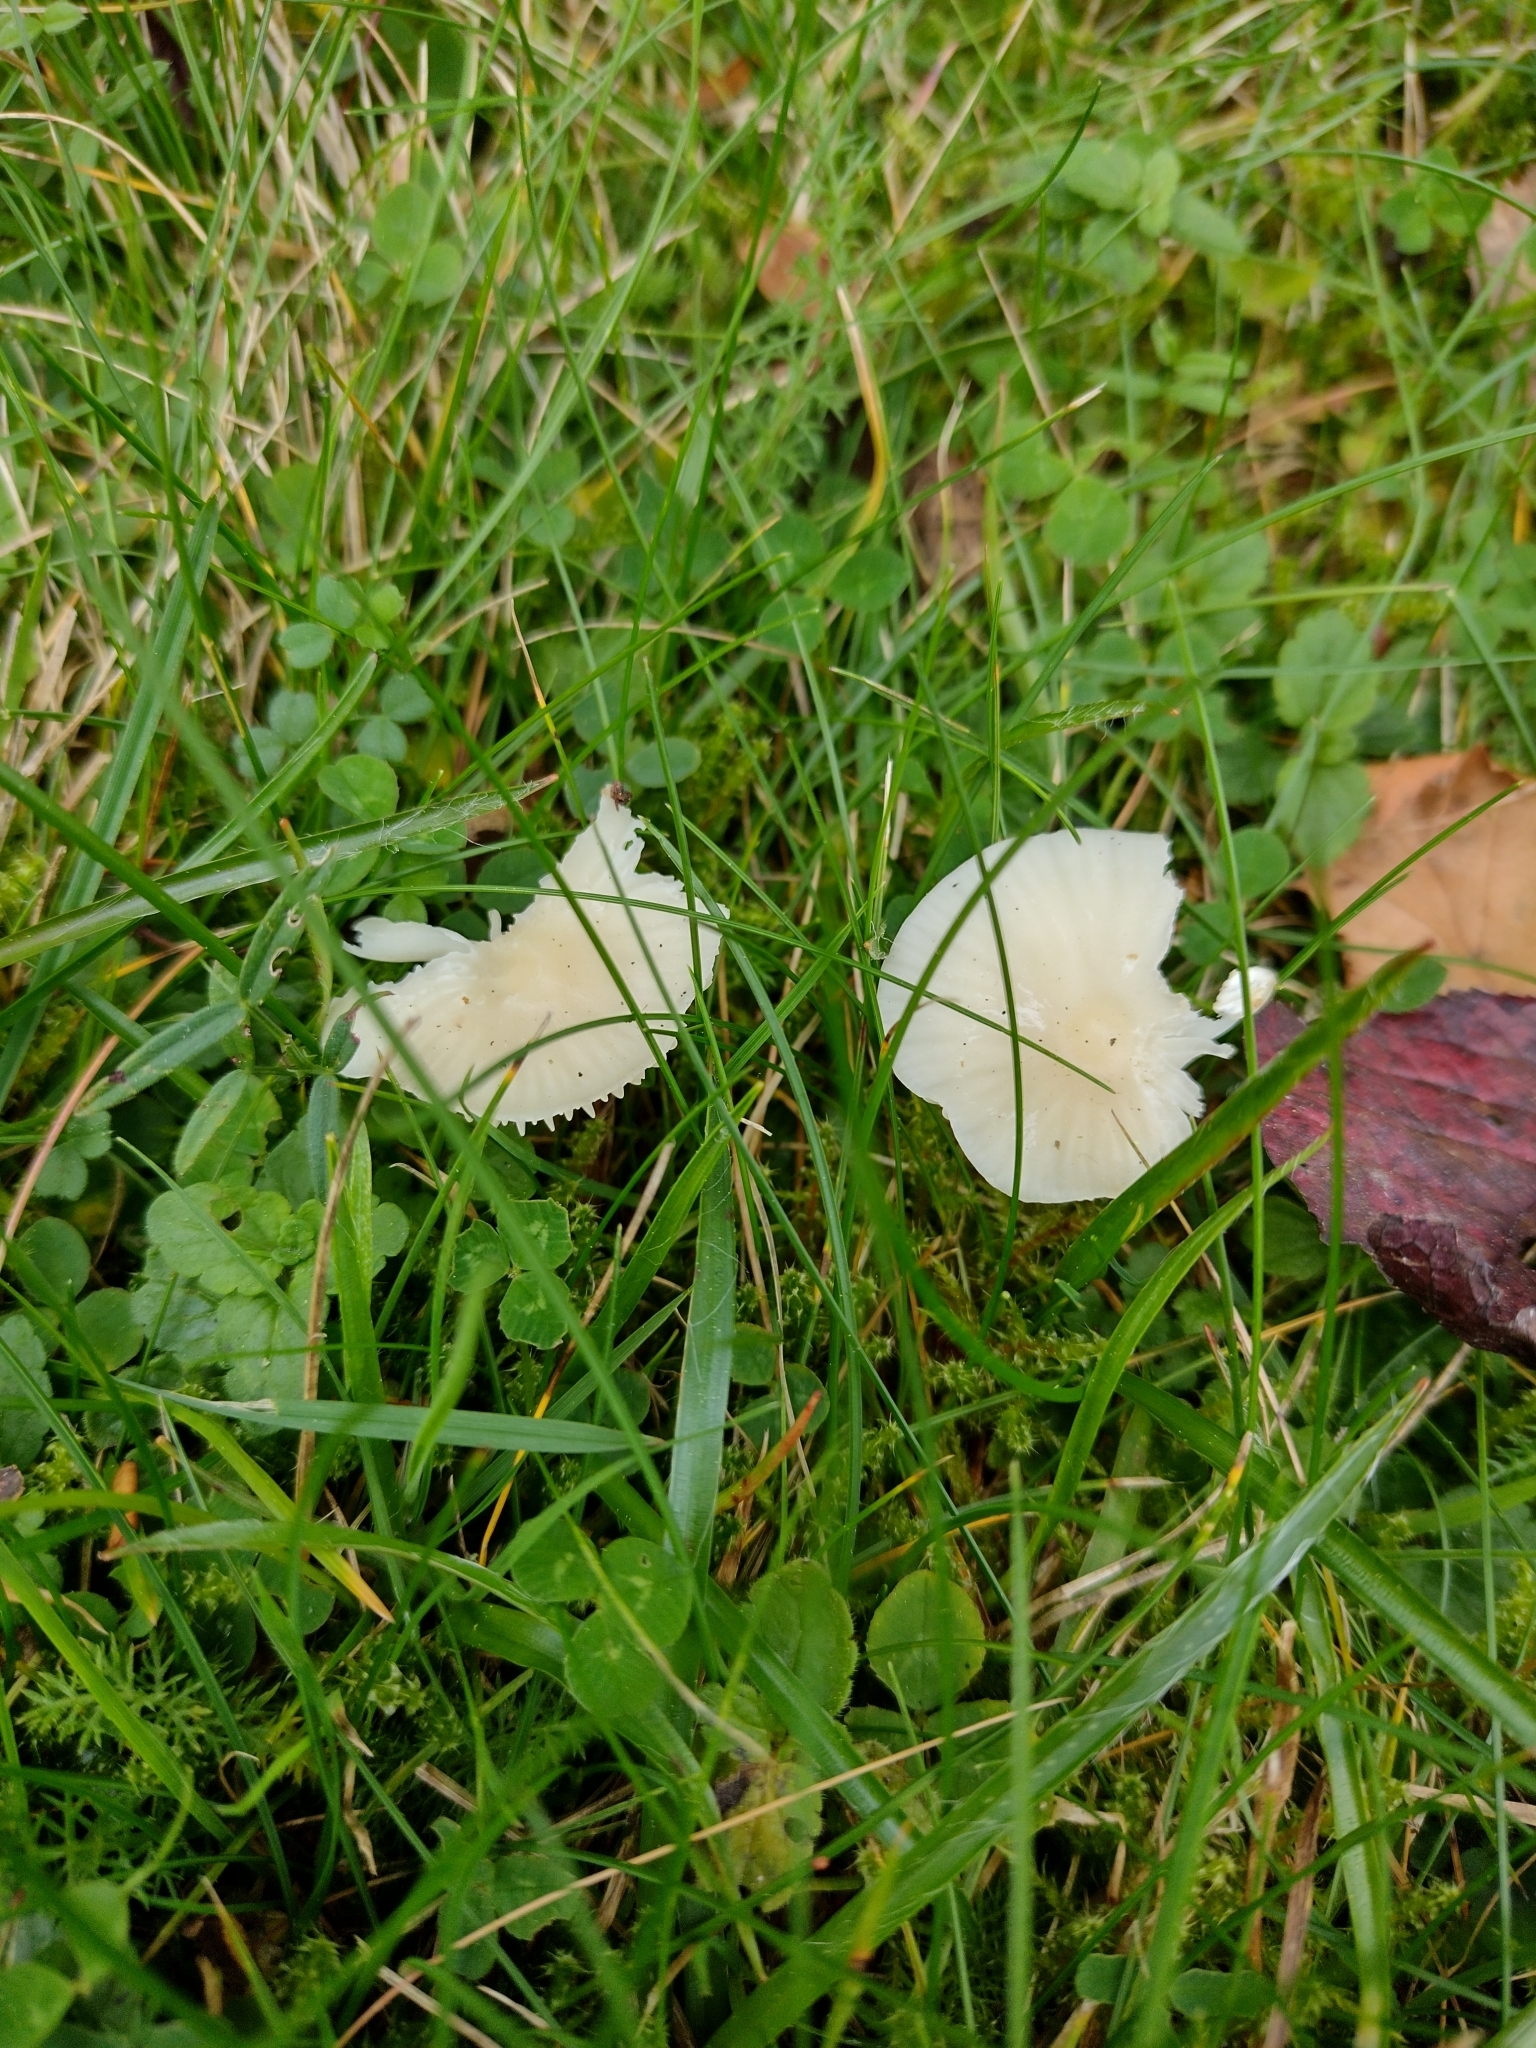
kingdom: Fungi
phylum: Basidiomycota
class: Agaricomycetes
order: Agaricales
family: Hygrophoraceae
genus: Cuphophyllus
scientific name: Cuphophyllus virgineus
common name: Snowy waxcap
